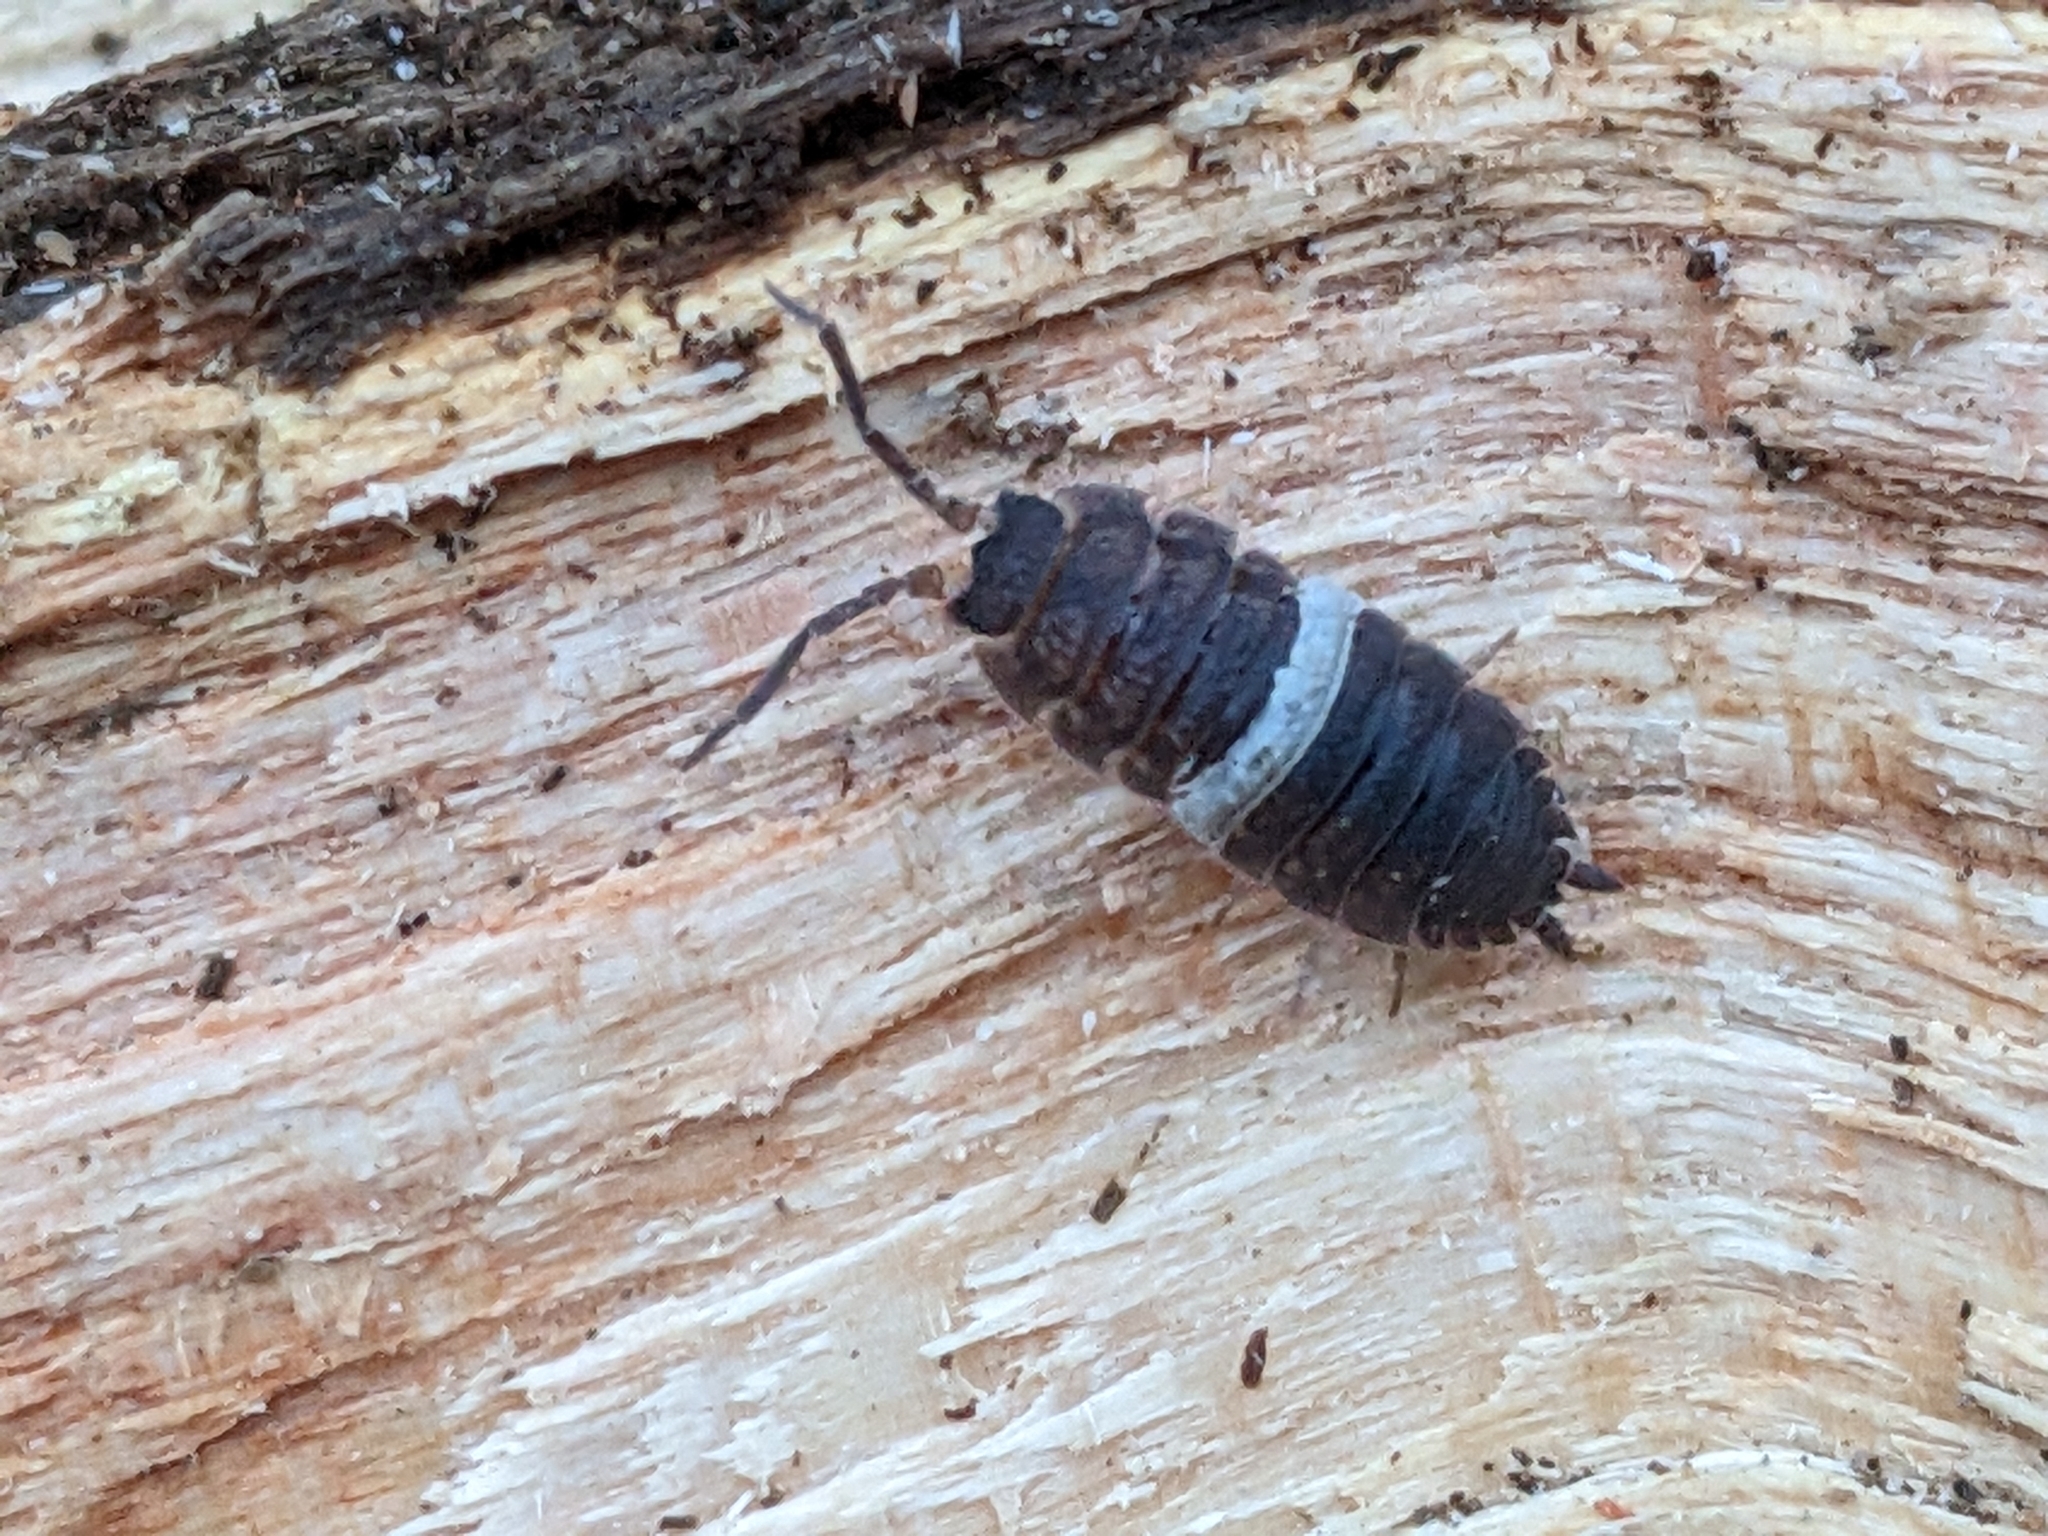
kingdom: Animalia
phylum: Arthropoda
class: Malacostraca
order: Isopoda
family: Porcellionidae
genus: Porcellio
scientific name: Porcellio scaber
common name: Common rough woodlouse
